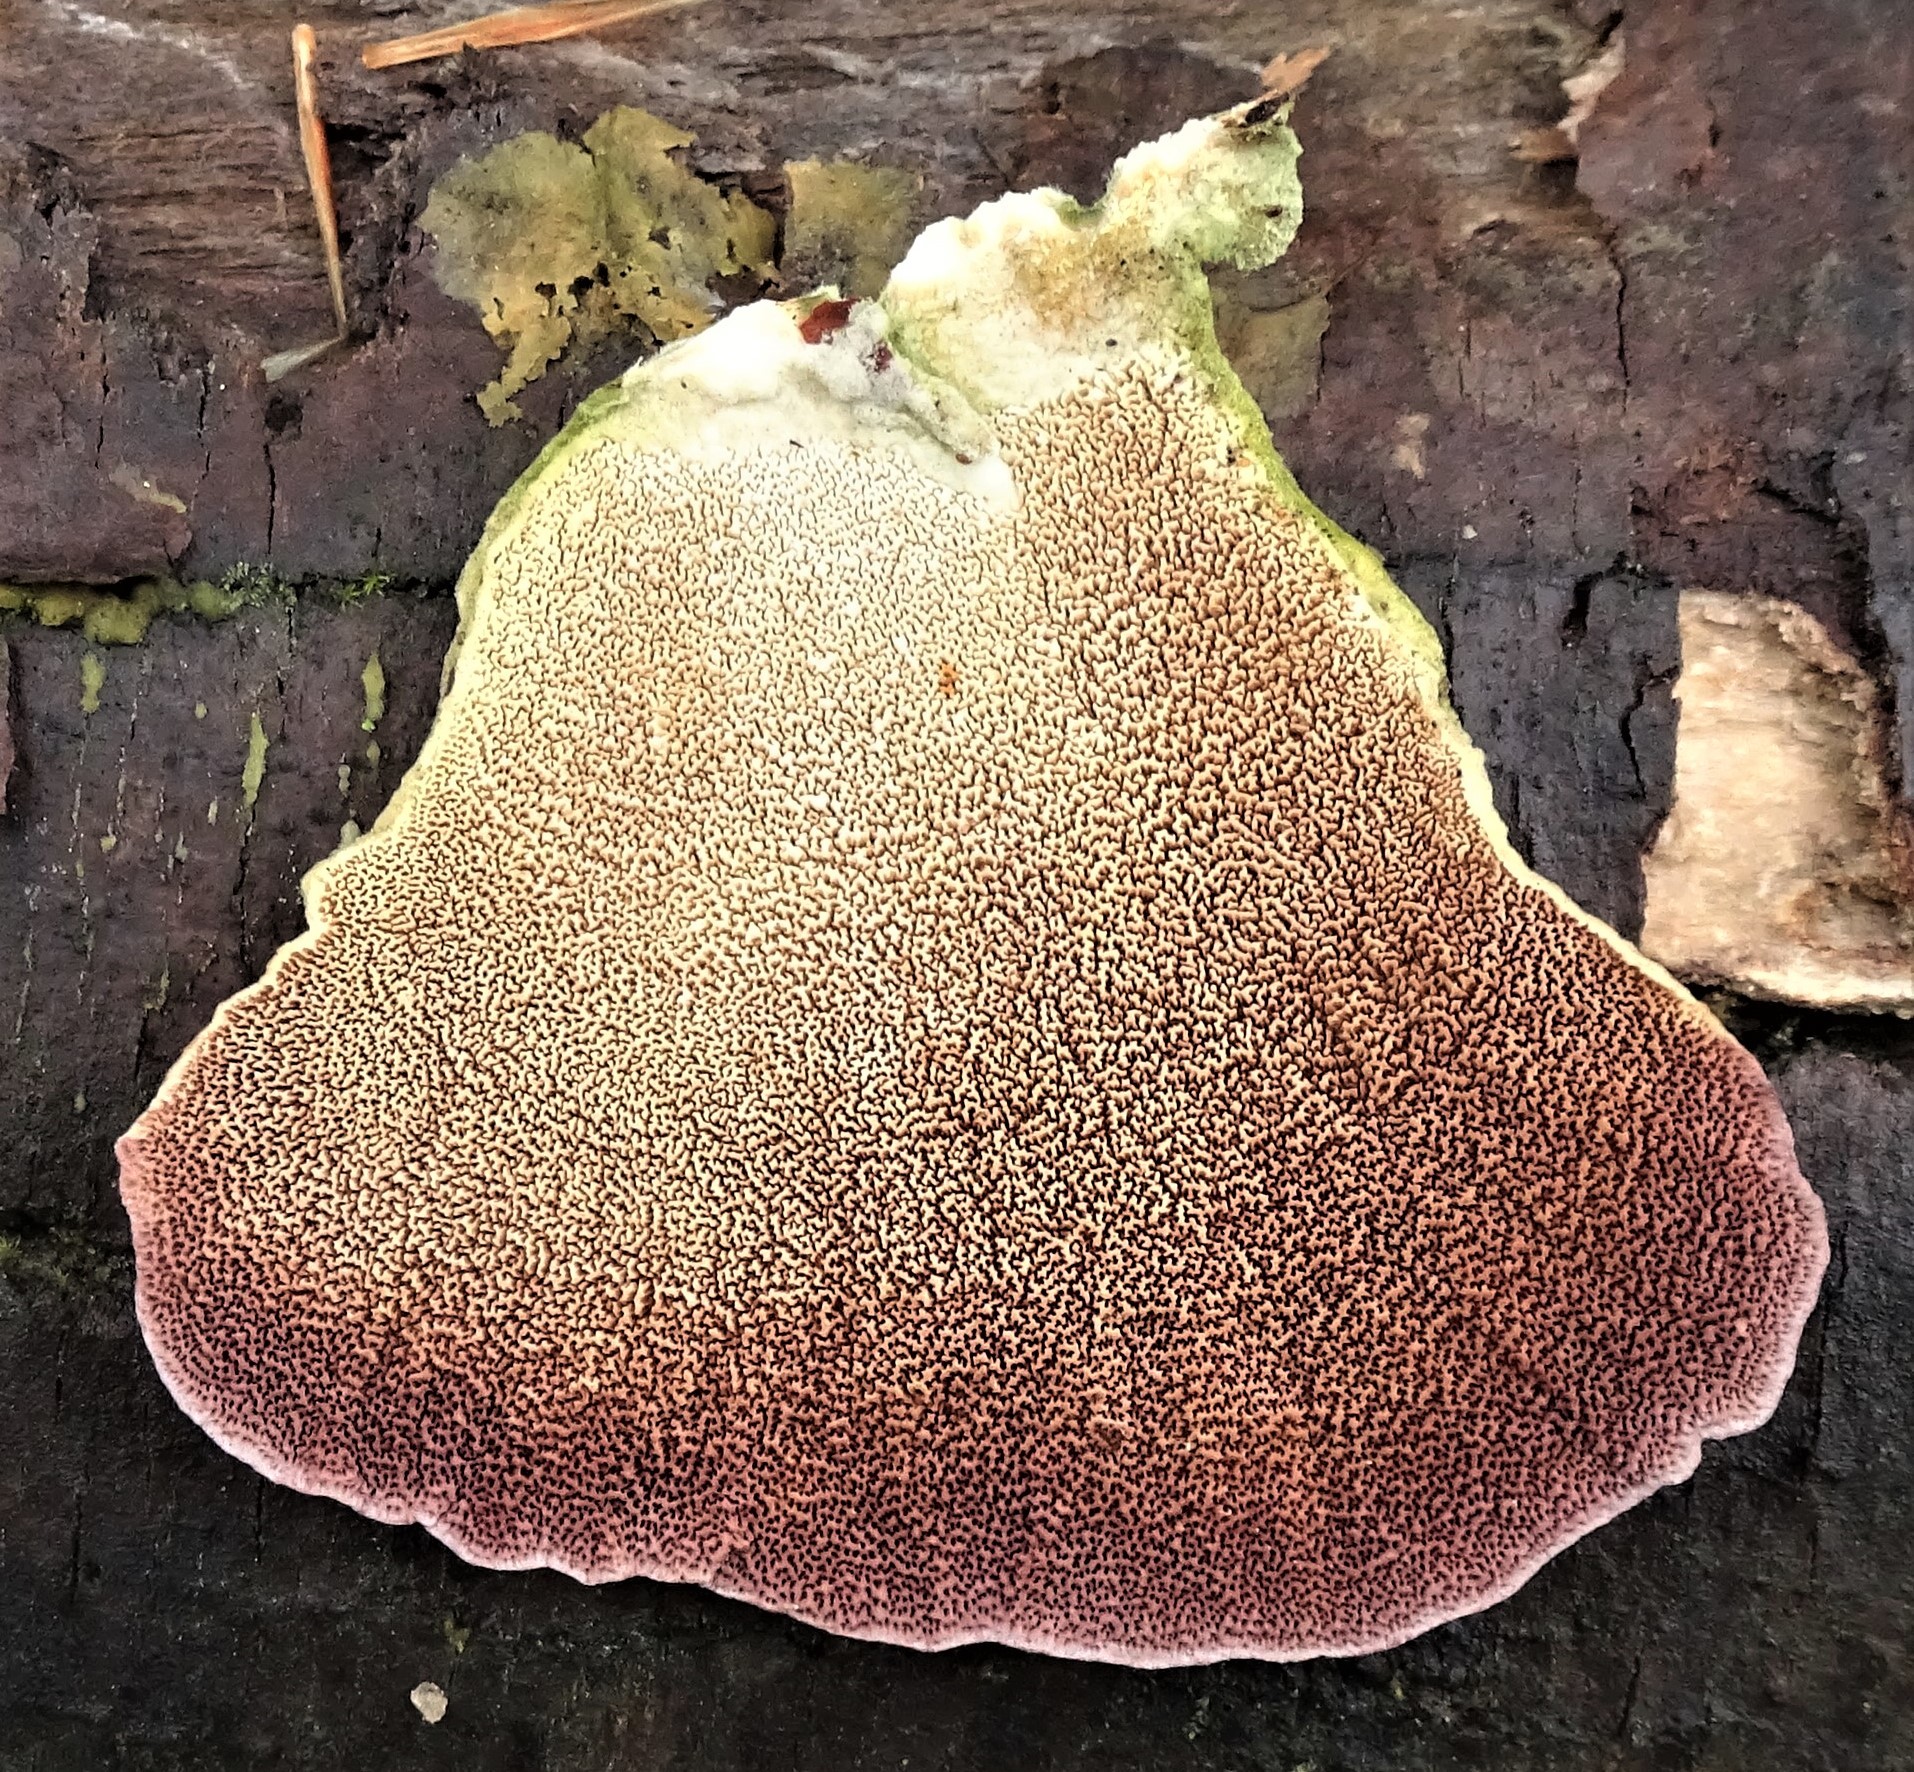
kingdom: Fungi
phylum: Basidiomycota
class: Agaricomycetes
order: Hymenochaetales
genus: Trichaptum
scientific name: Trichaptum biforme
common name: Violet-toothed polypore
